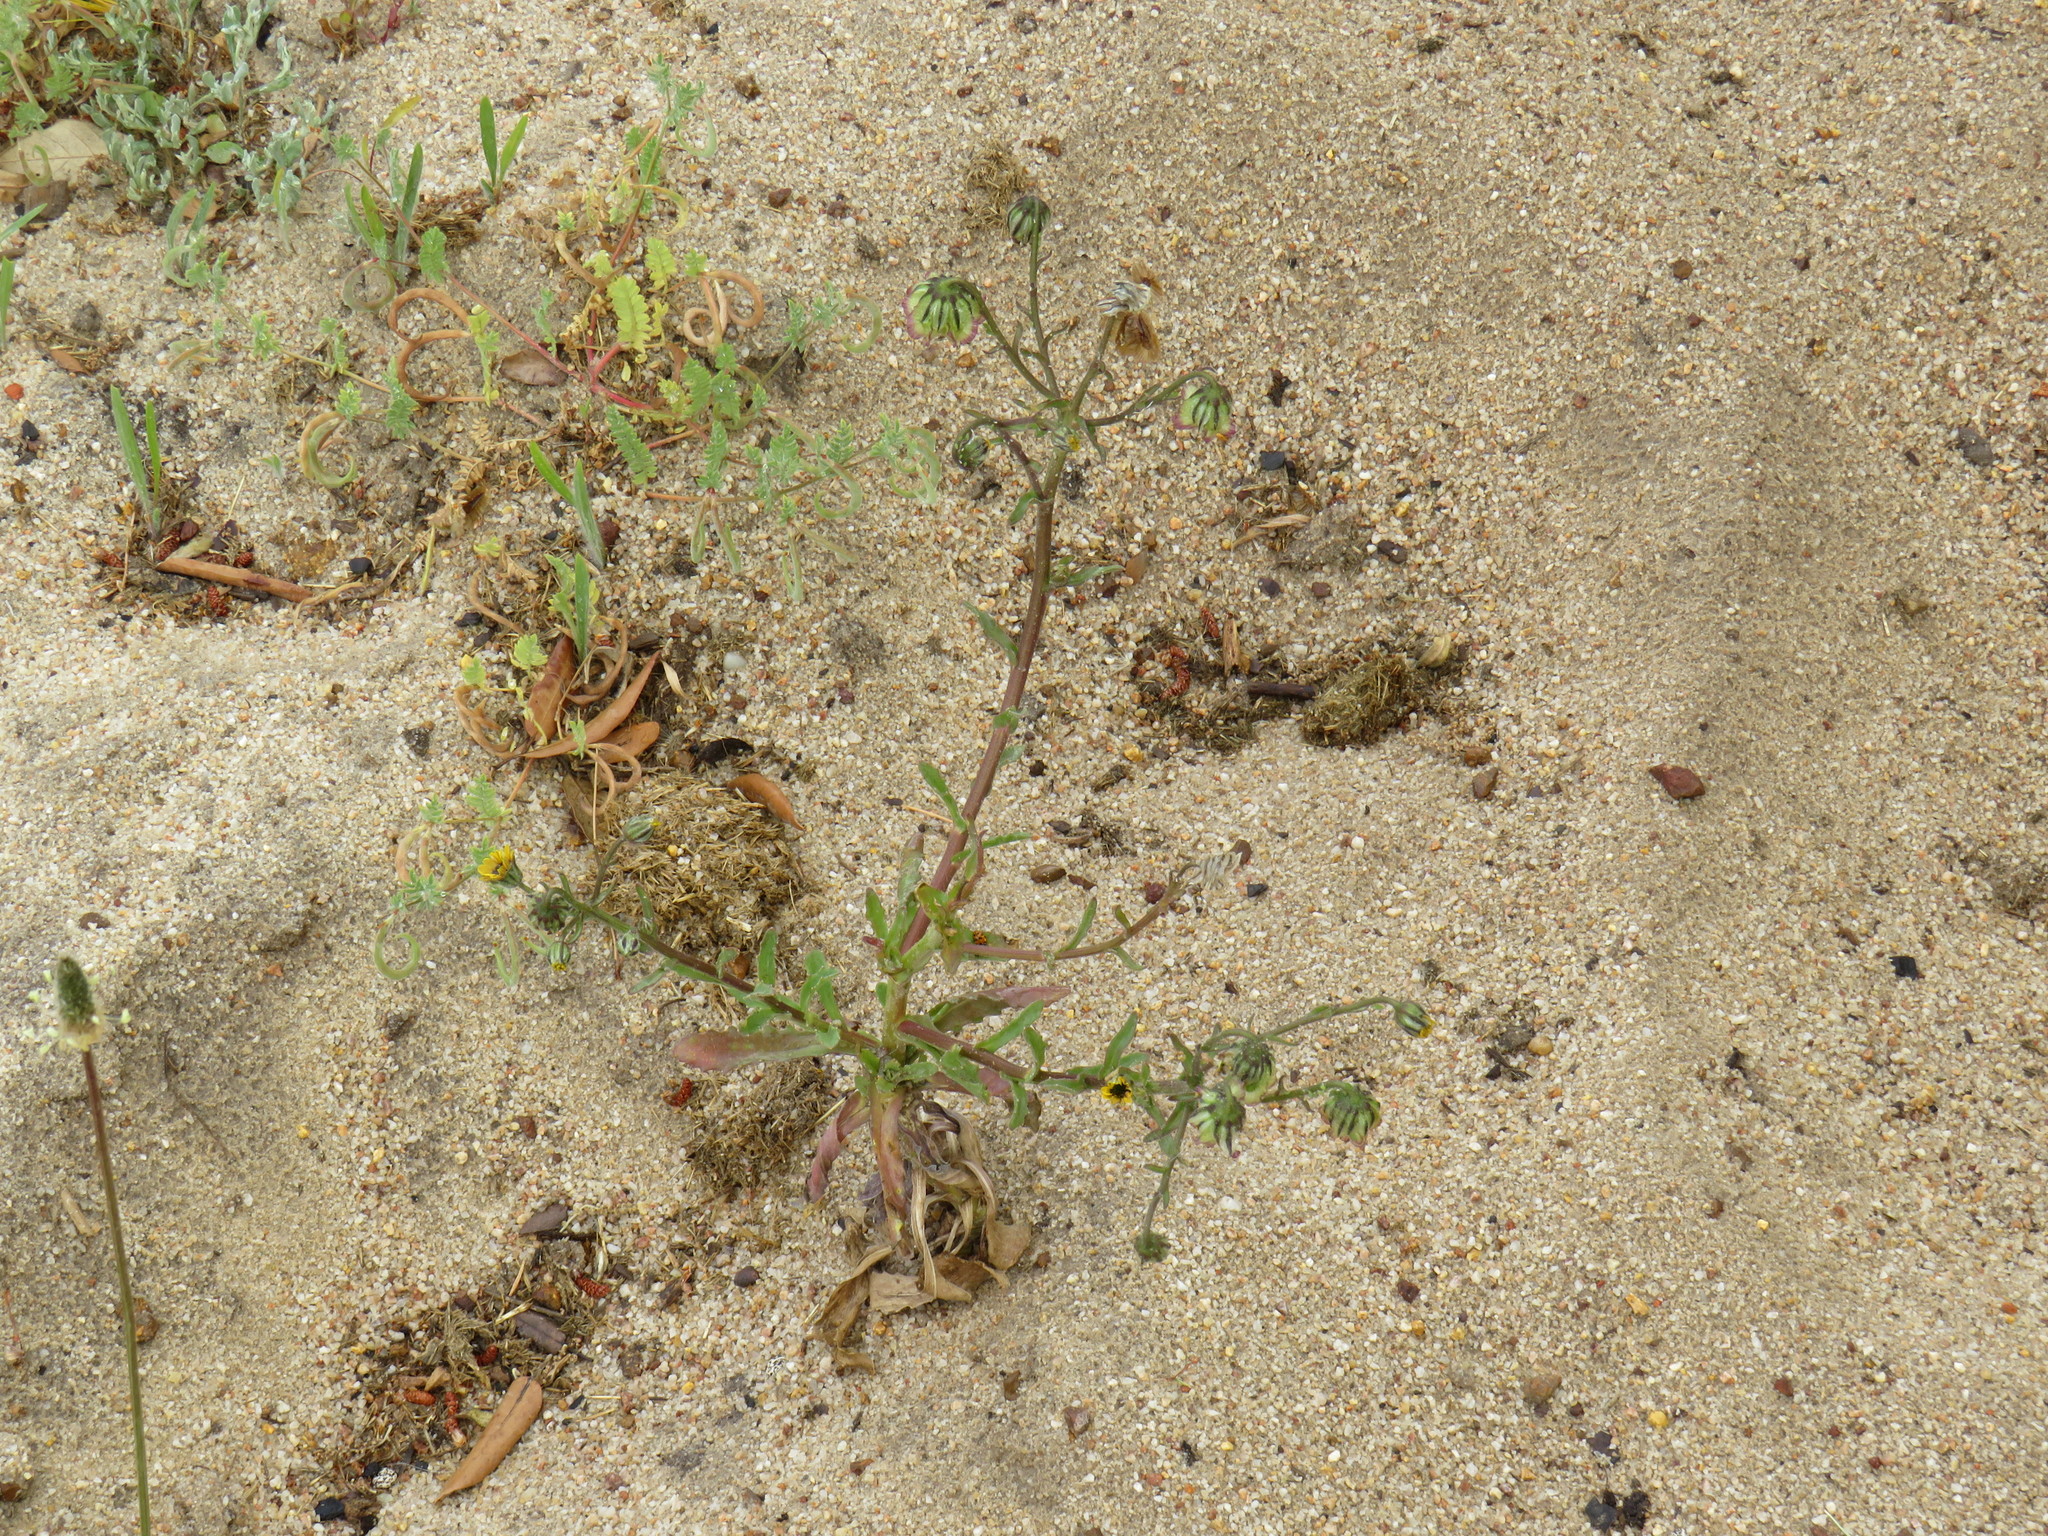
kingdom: Plantae
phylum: Tracheophyta
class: Magnoliopsida
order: Asterales
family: Asteraceae
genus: Osteospermum
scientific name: Osteospermum monstrosum
